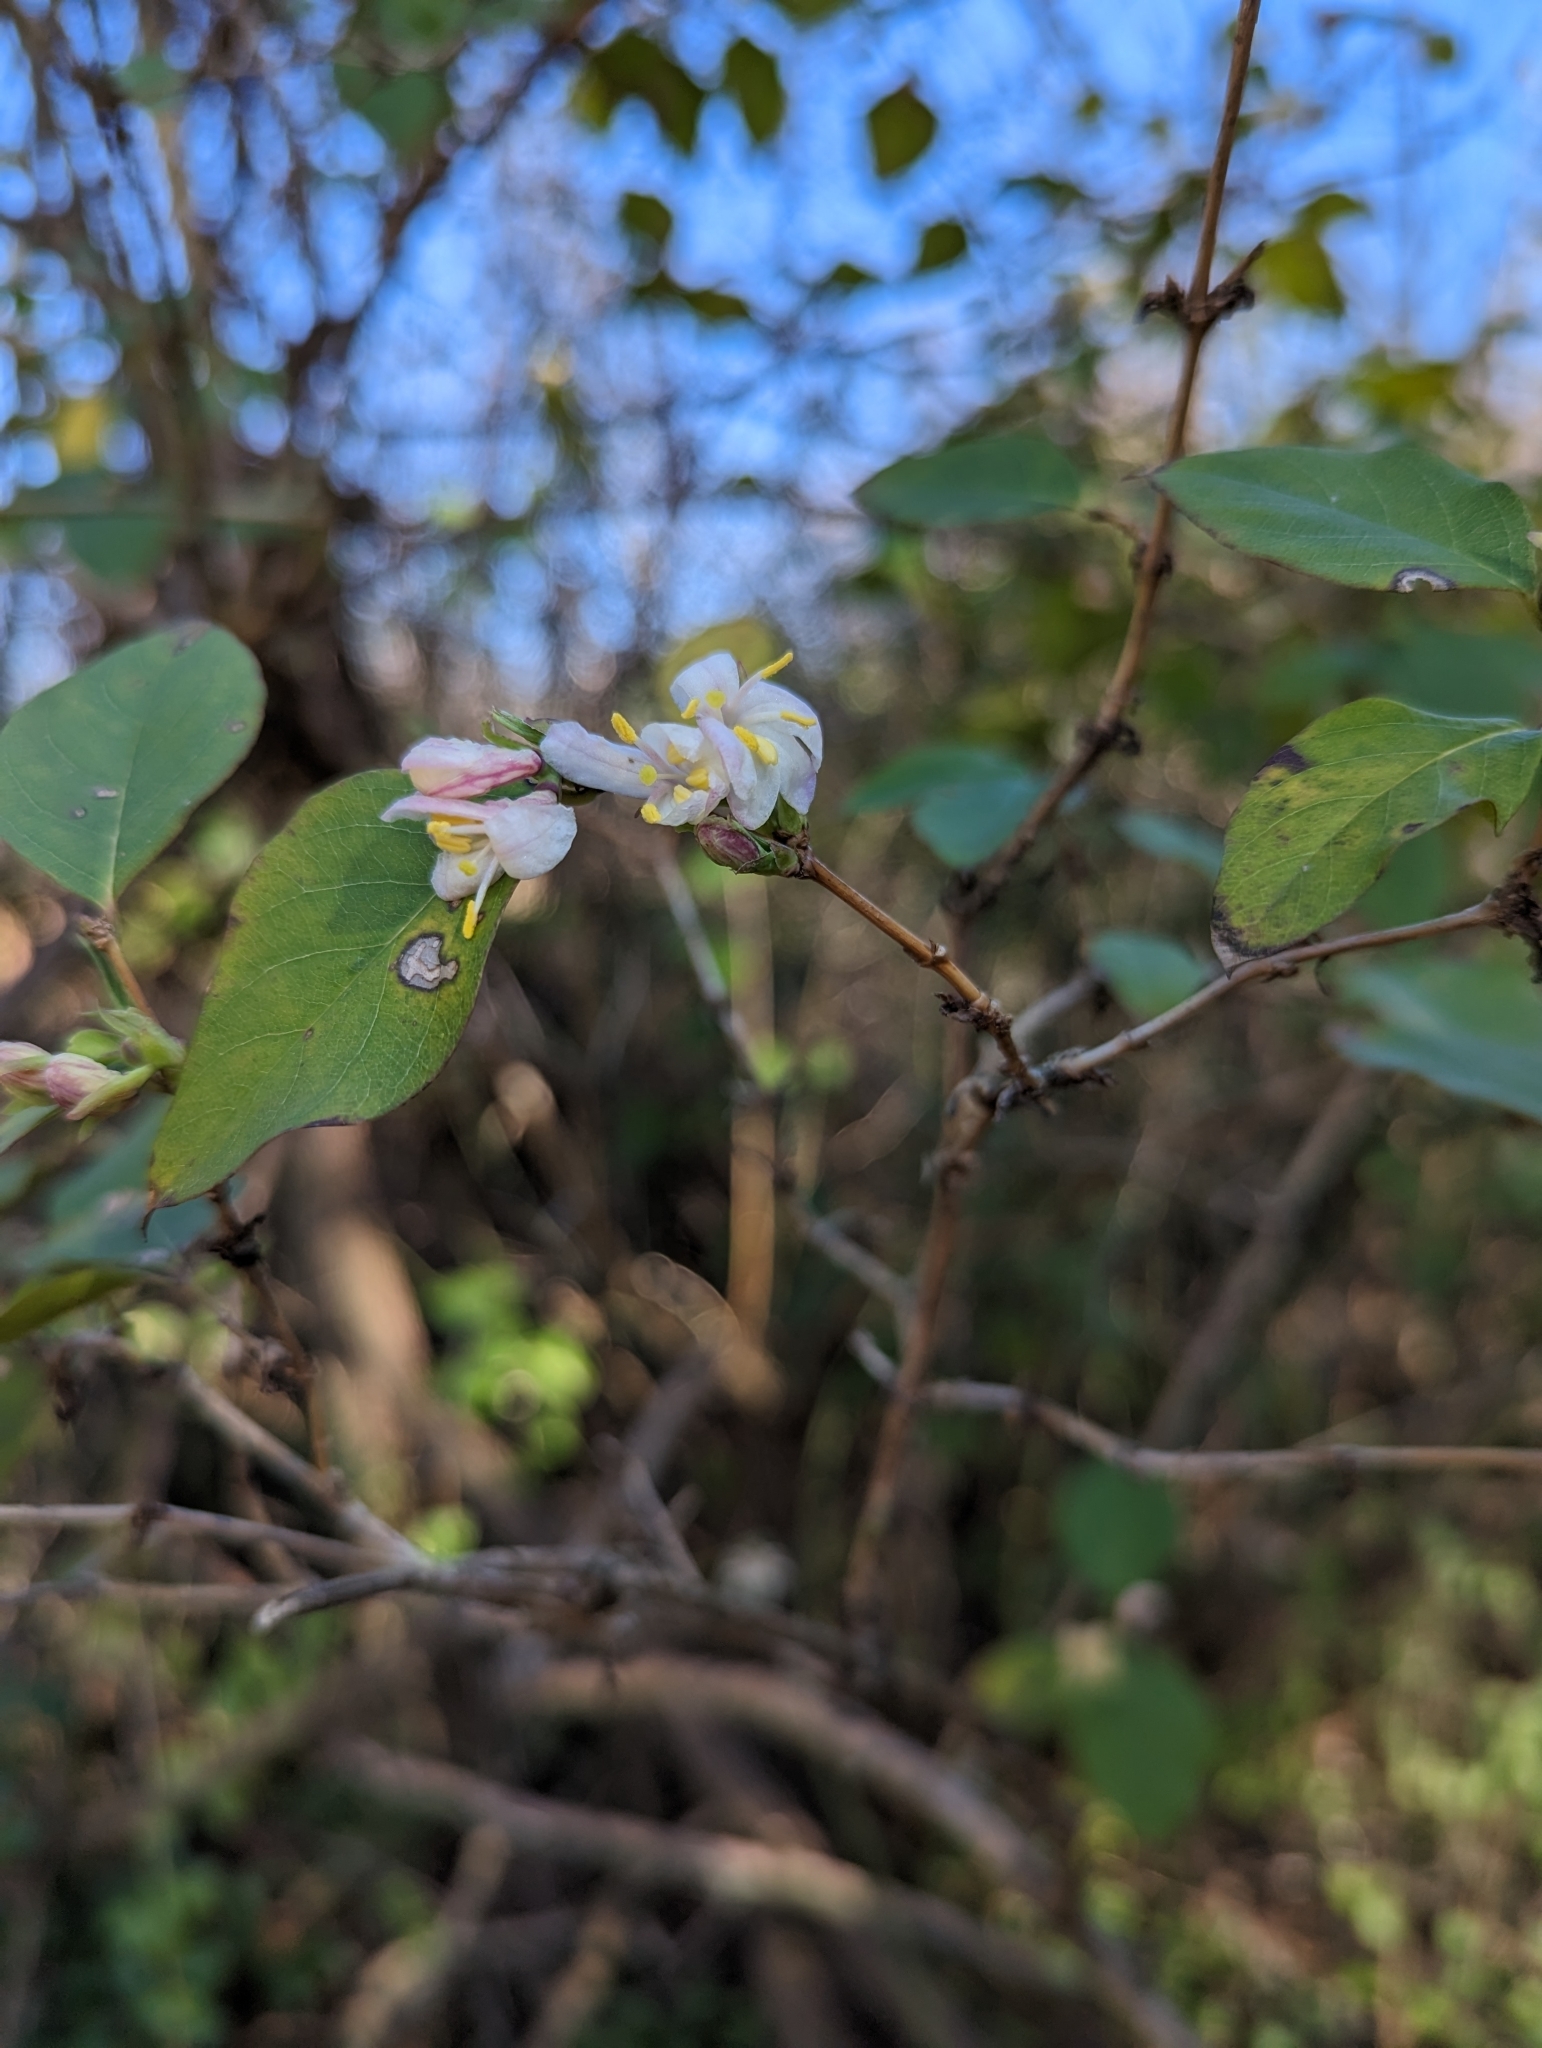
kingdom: Plantae
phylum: Tracheophyta
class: Magnoliopsida
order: Dipsacales
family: Caprifoliaceae
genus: Lonicera
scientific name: Lonicera fragrantissima
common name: Fragrant honeysuckle
